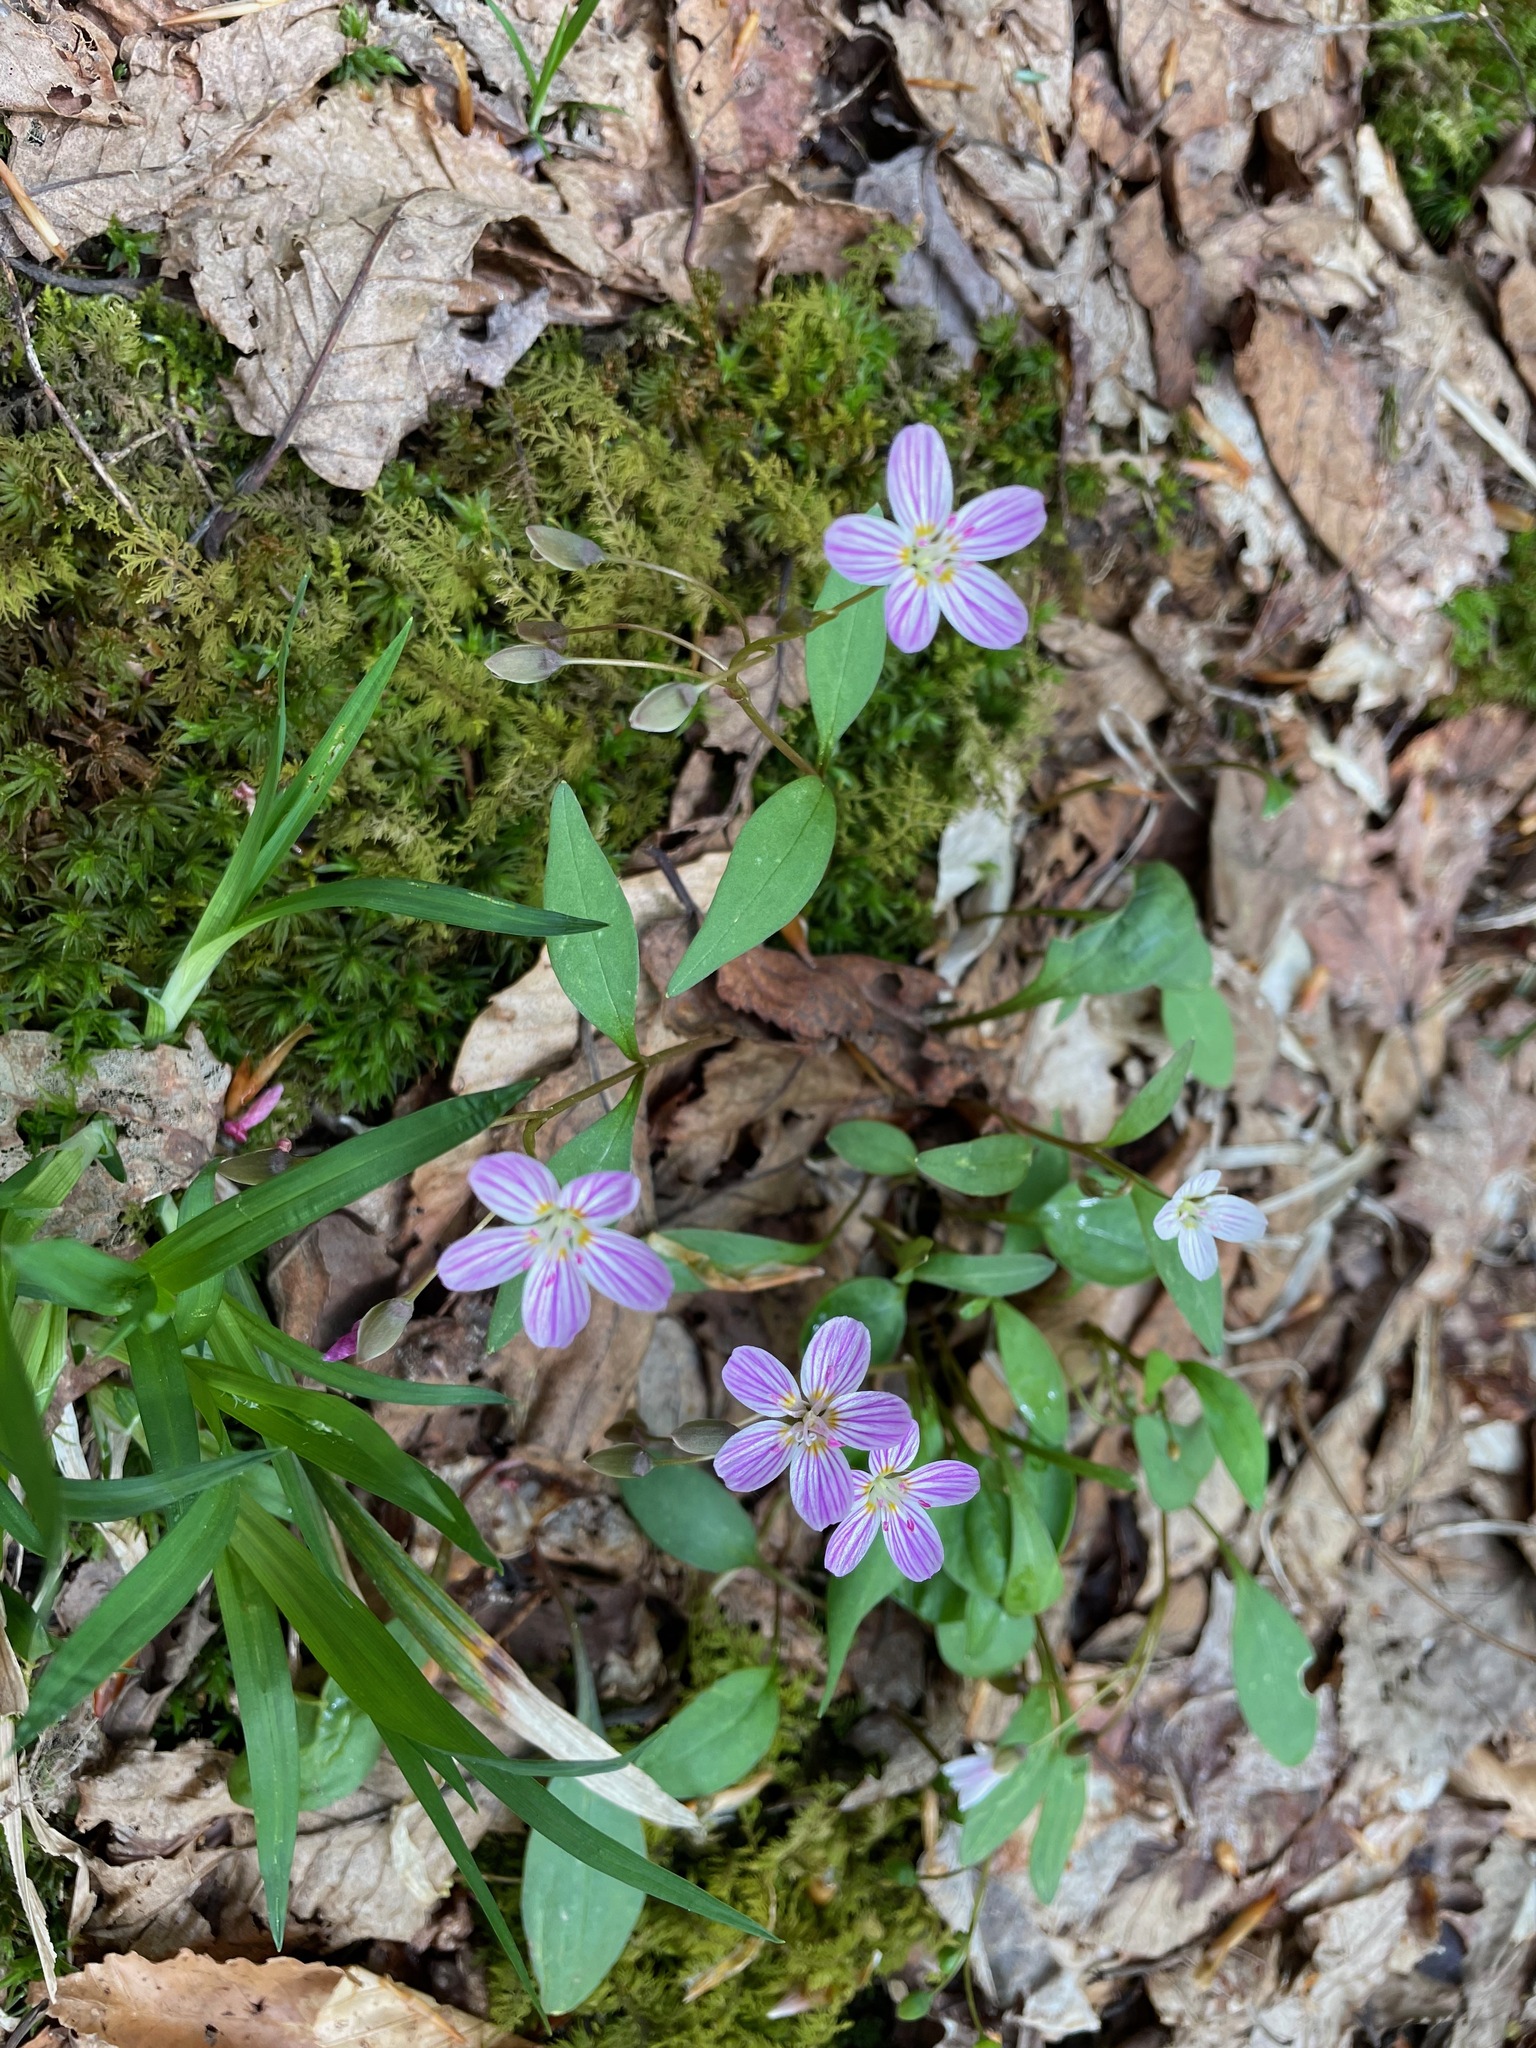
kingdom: Plantae
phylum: Tracheophyta
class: Magnoliopsida
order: Caryophyllales
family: Montiaceae
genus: Claytonia
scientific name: Claytonia caroliniana
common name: Carolina spring beauty
